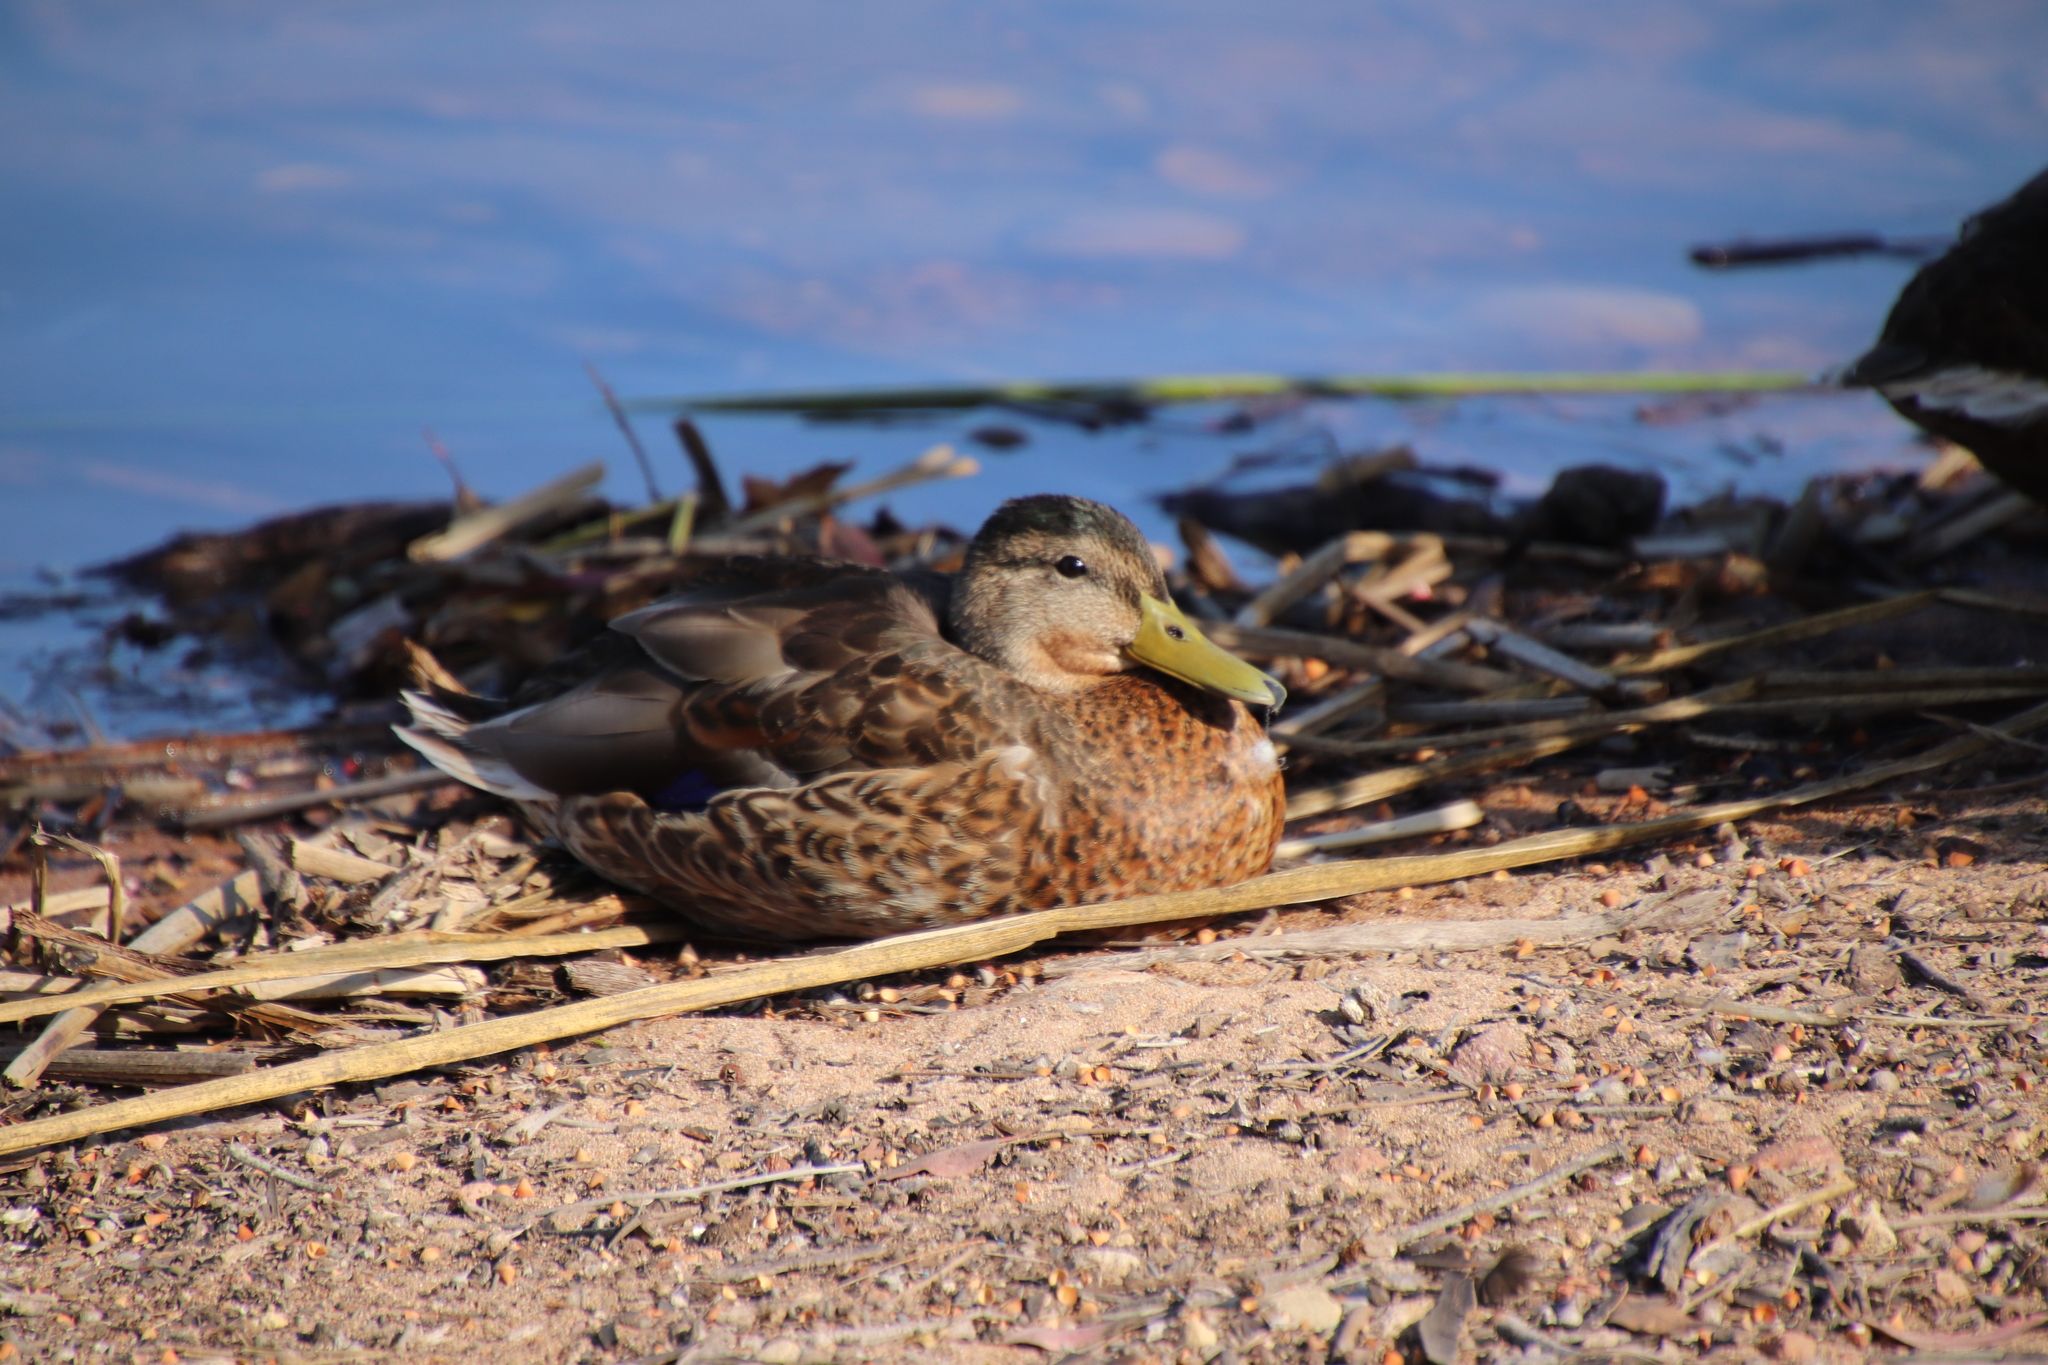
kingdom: Animalia
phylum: Chordata
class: Aves
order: Anseriformes
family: Anatidae
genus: Anas
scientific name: Anas platyrhynchos
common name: Mallard
